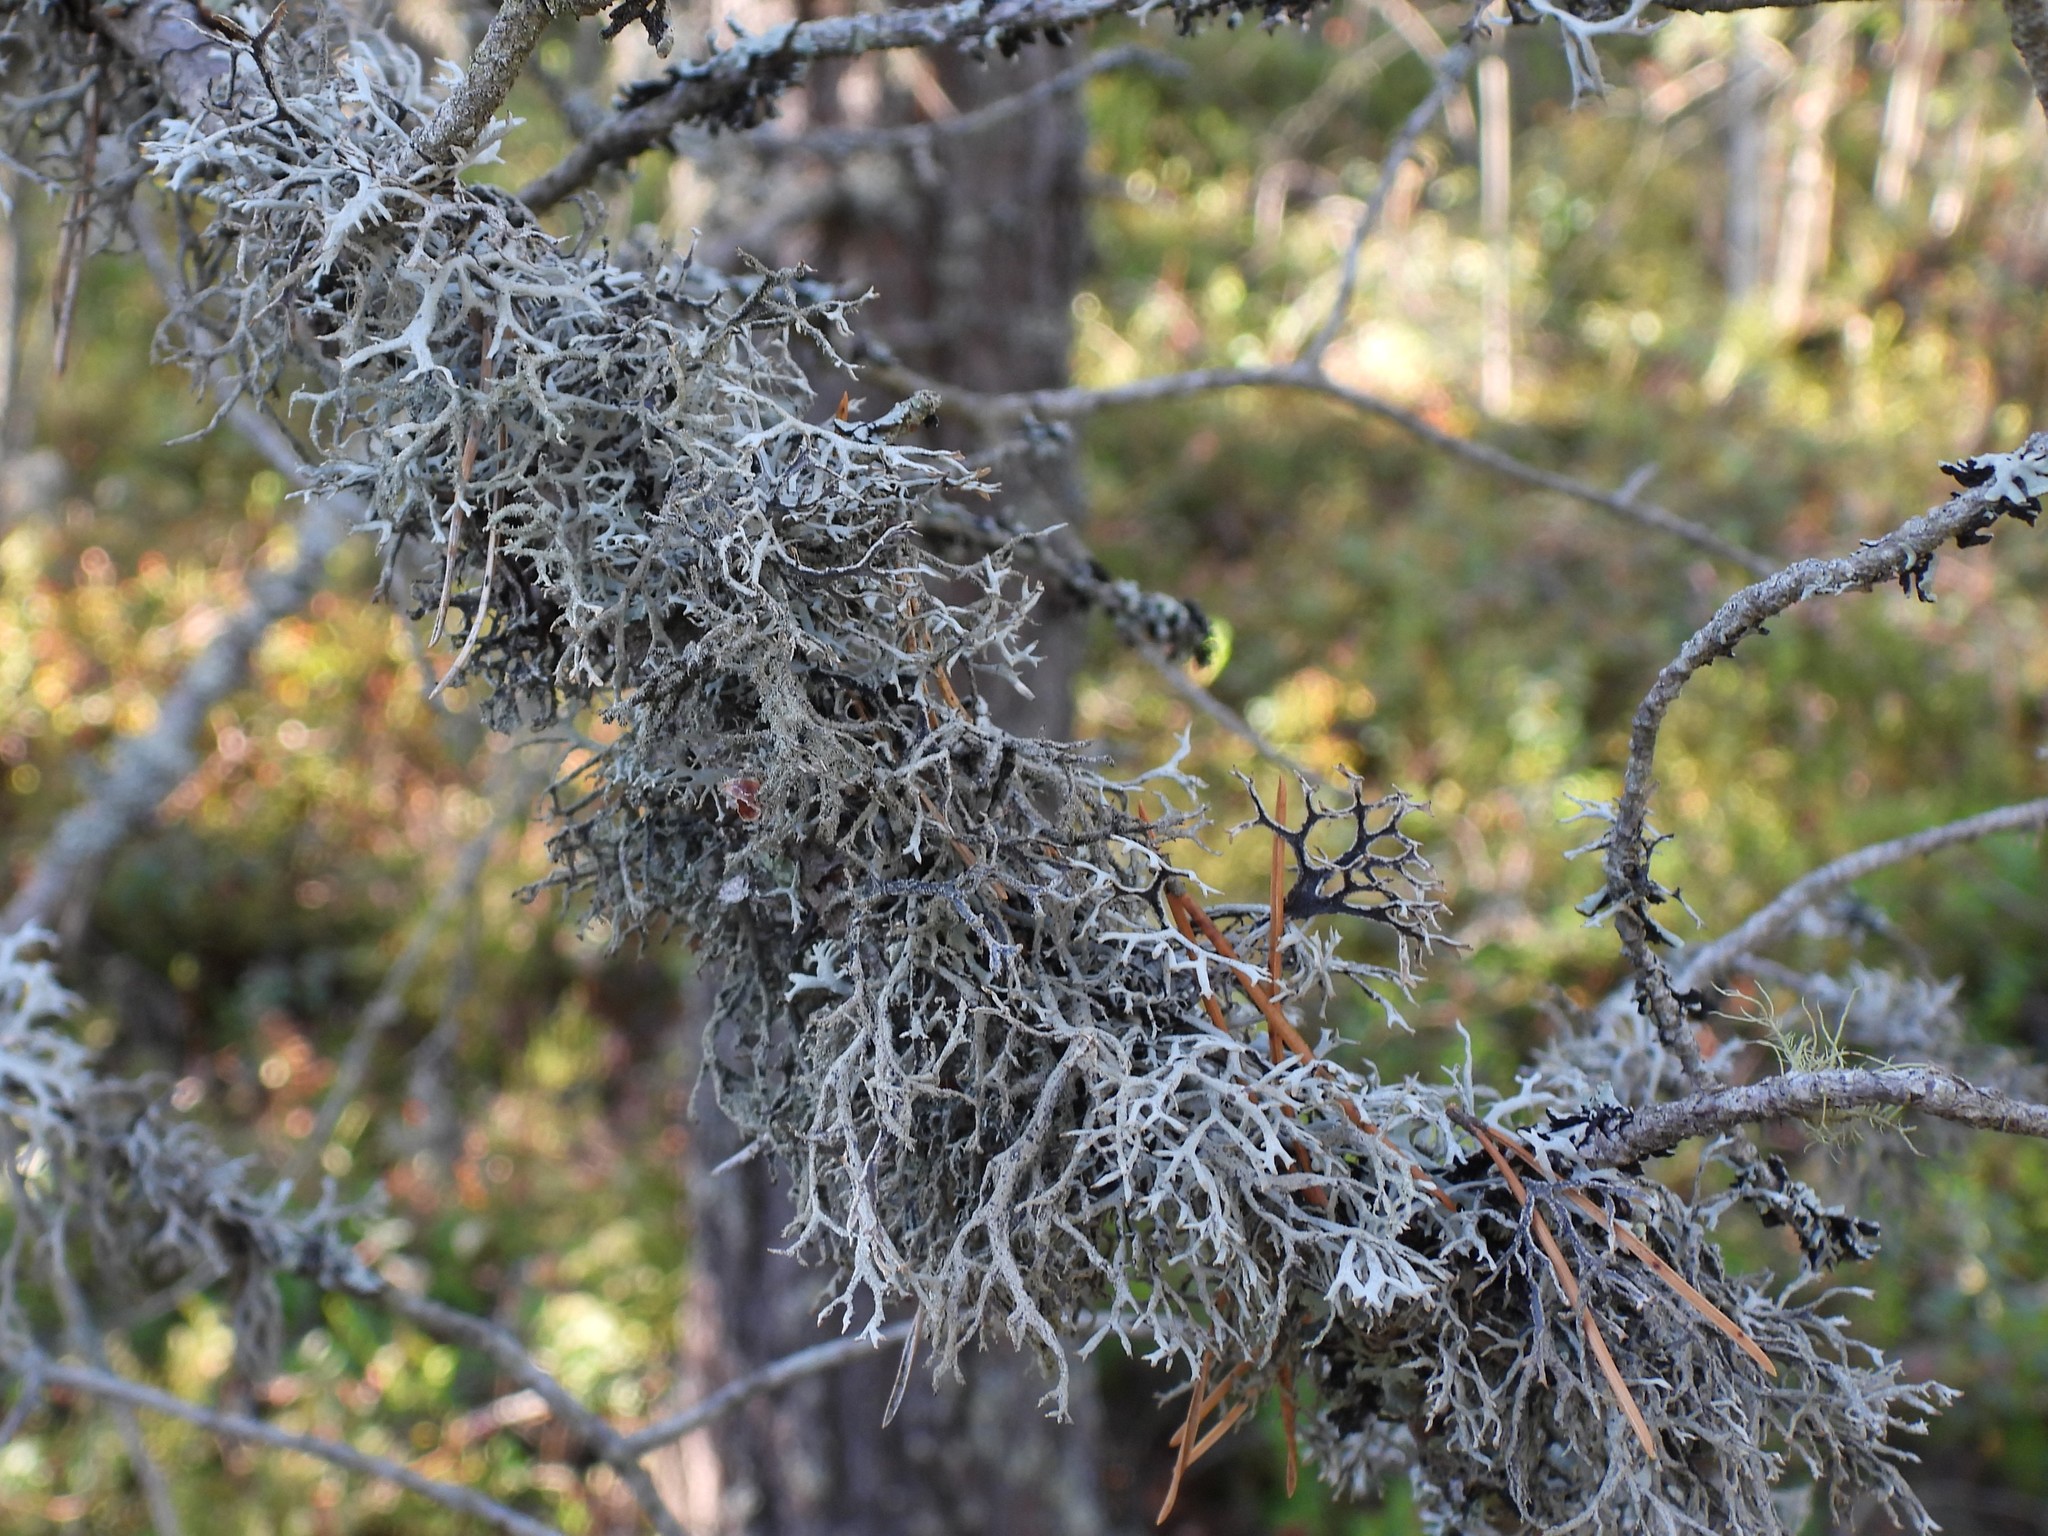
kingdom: Fungi
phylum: Ascomycota
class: Lecanoromycetes
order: Lecanorales
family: Parmeliaceae
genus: Pseudevernia
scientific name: Pseudevernia furfuracea
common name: Tree moss
